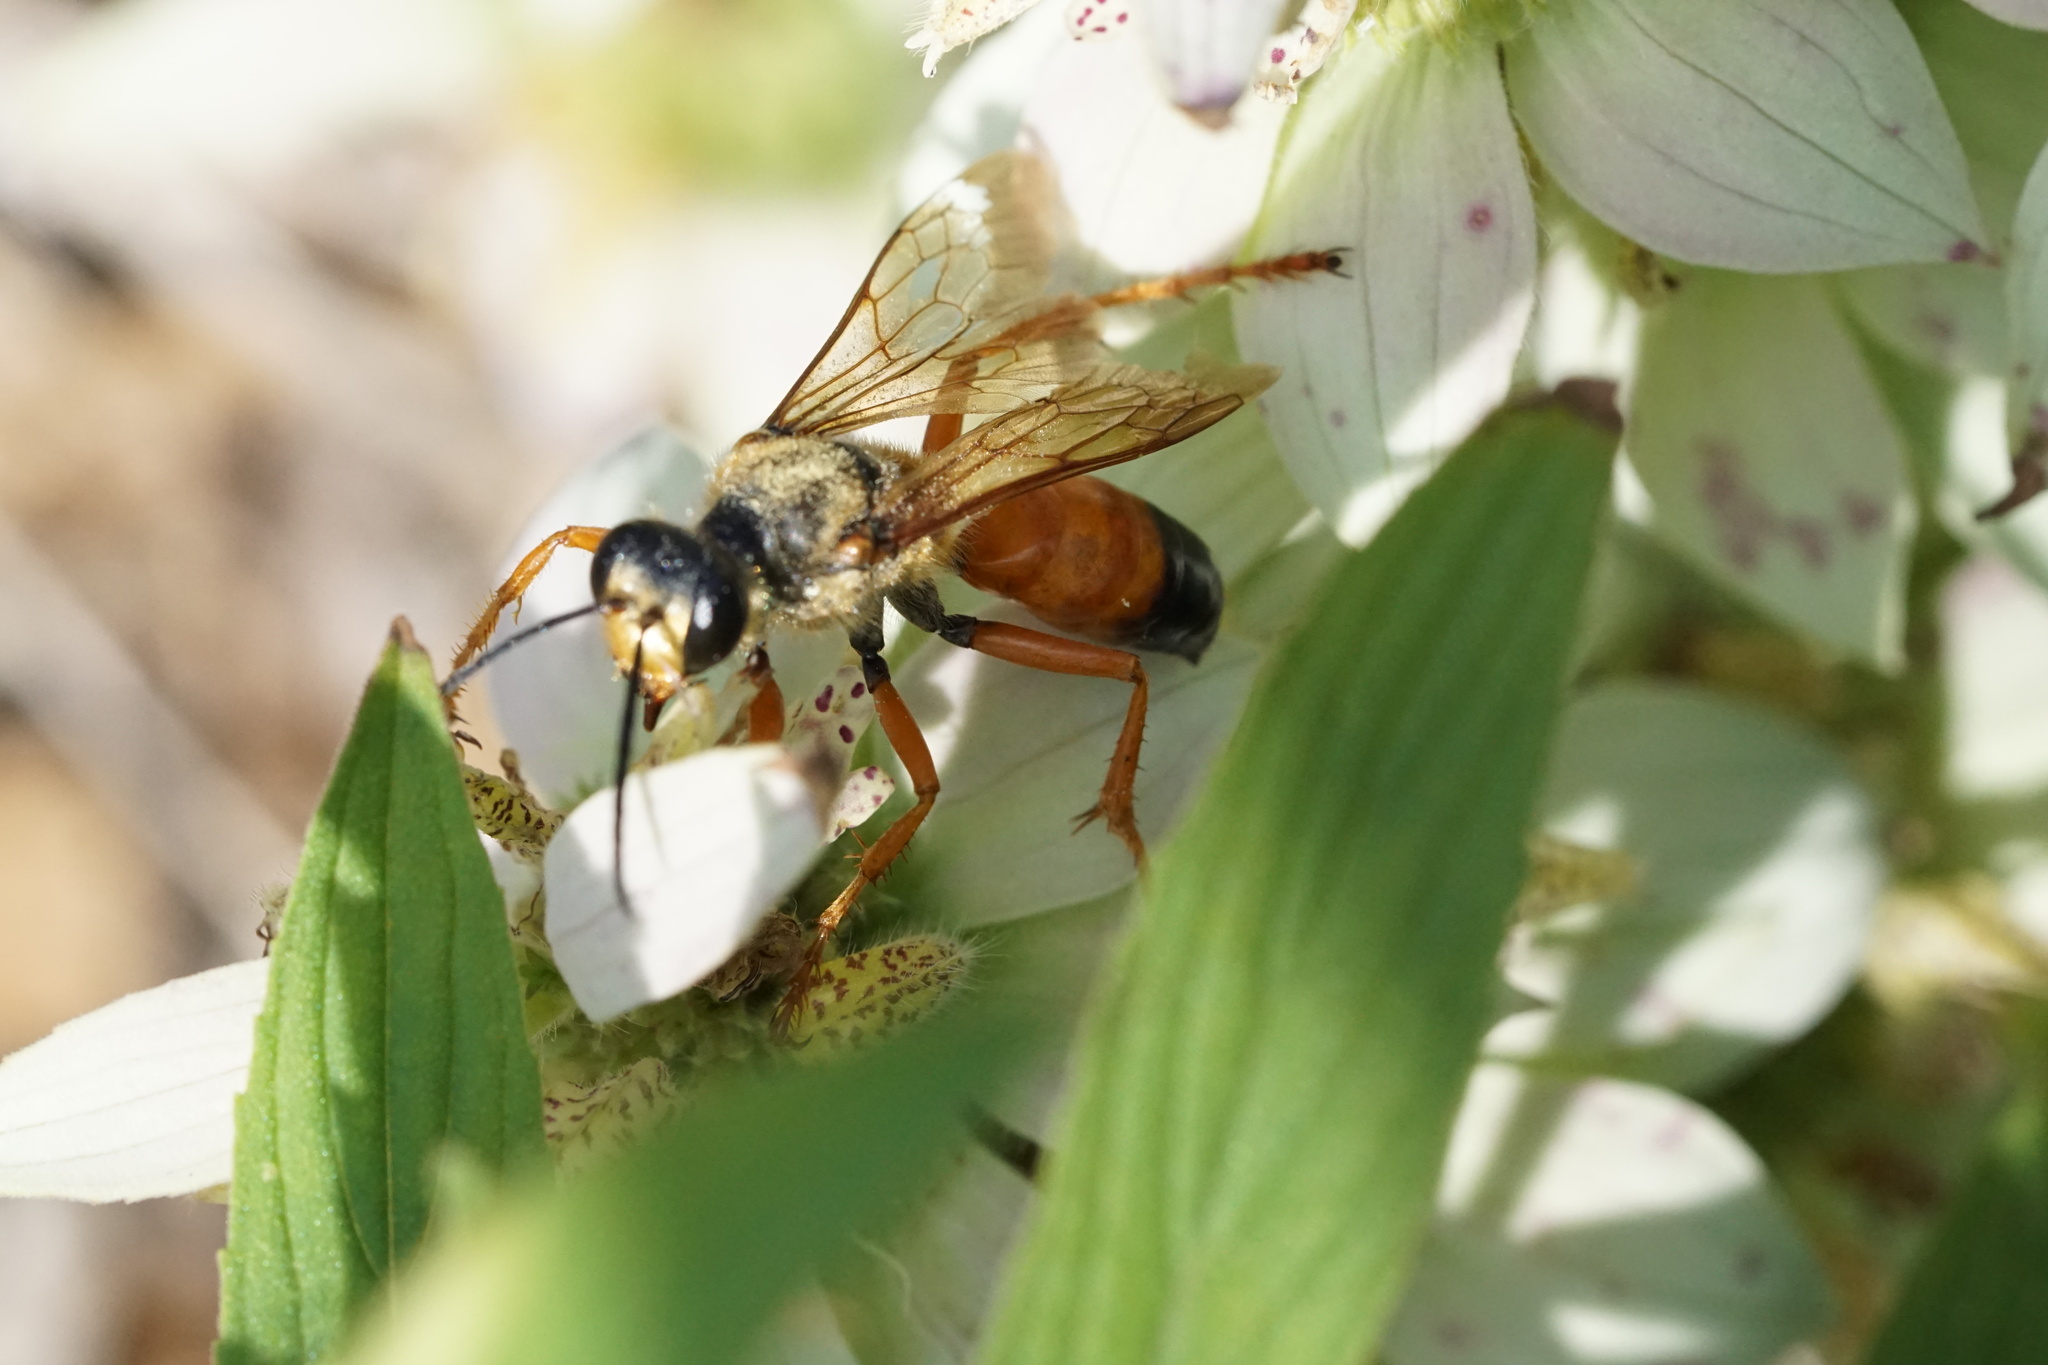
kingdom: Animalia
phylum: Arthropoda
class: Insecta
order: Hymenoptera
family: Sphecidae
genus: Sphex
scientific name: Sphex ichneumoneus
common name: Great golden digger wasp
